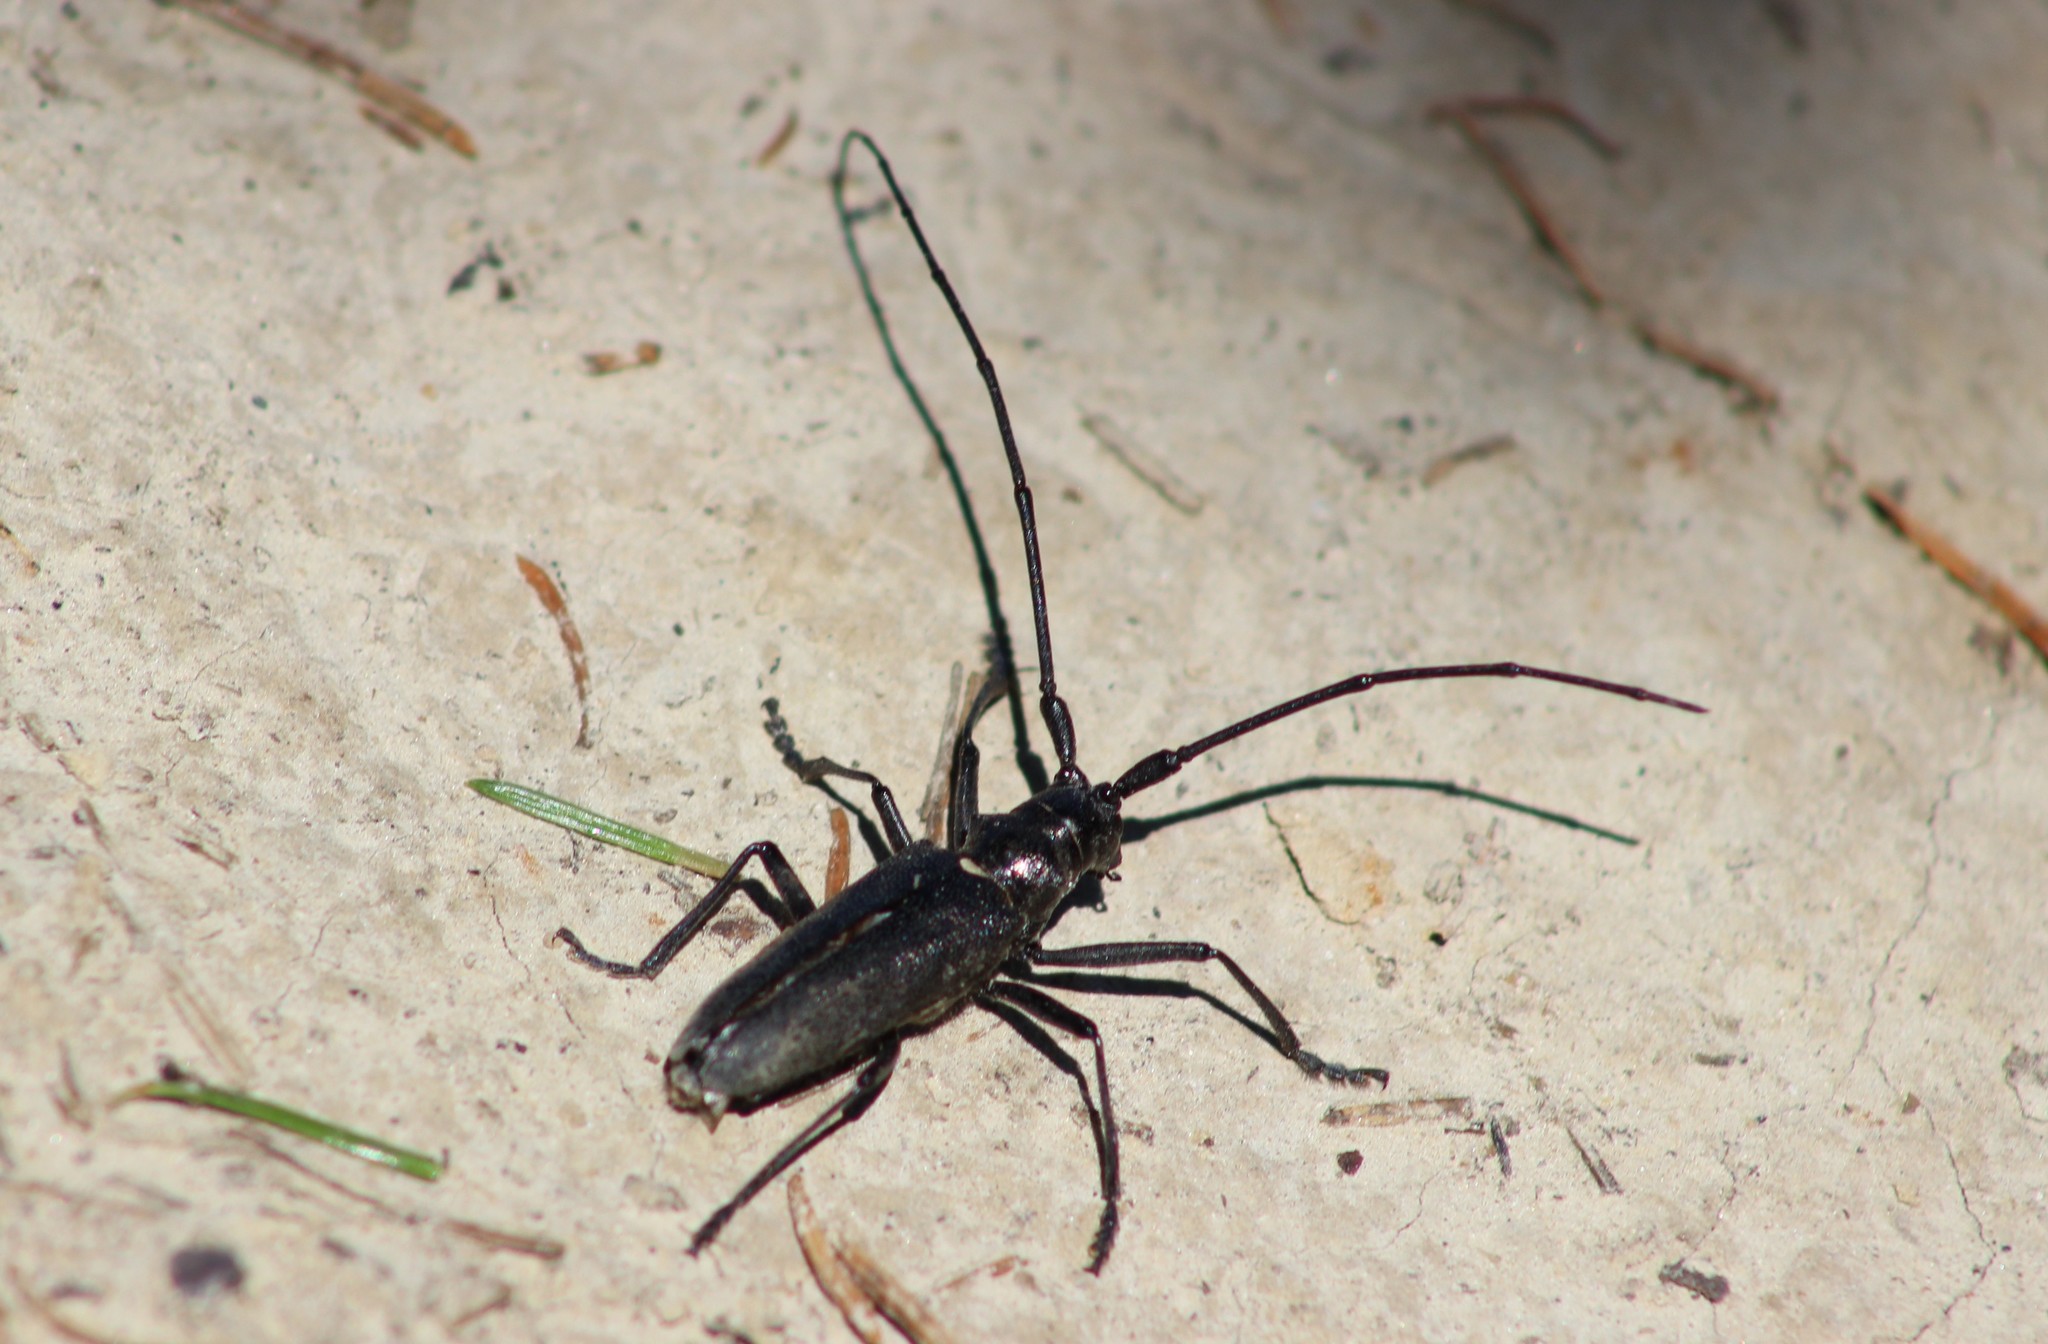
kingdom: Animalia
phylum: Arthropoda
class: Insecta
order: Coleoptera
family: Cerambycidae
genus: Monochamus
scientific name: Monochamus sutor
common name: Pine sawyer
